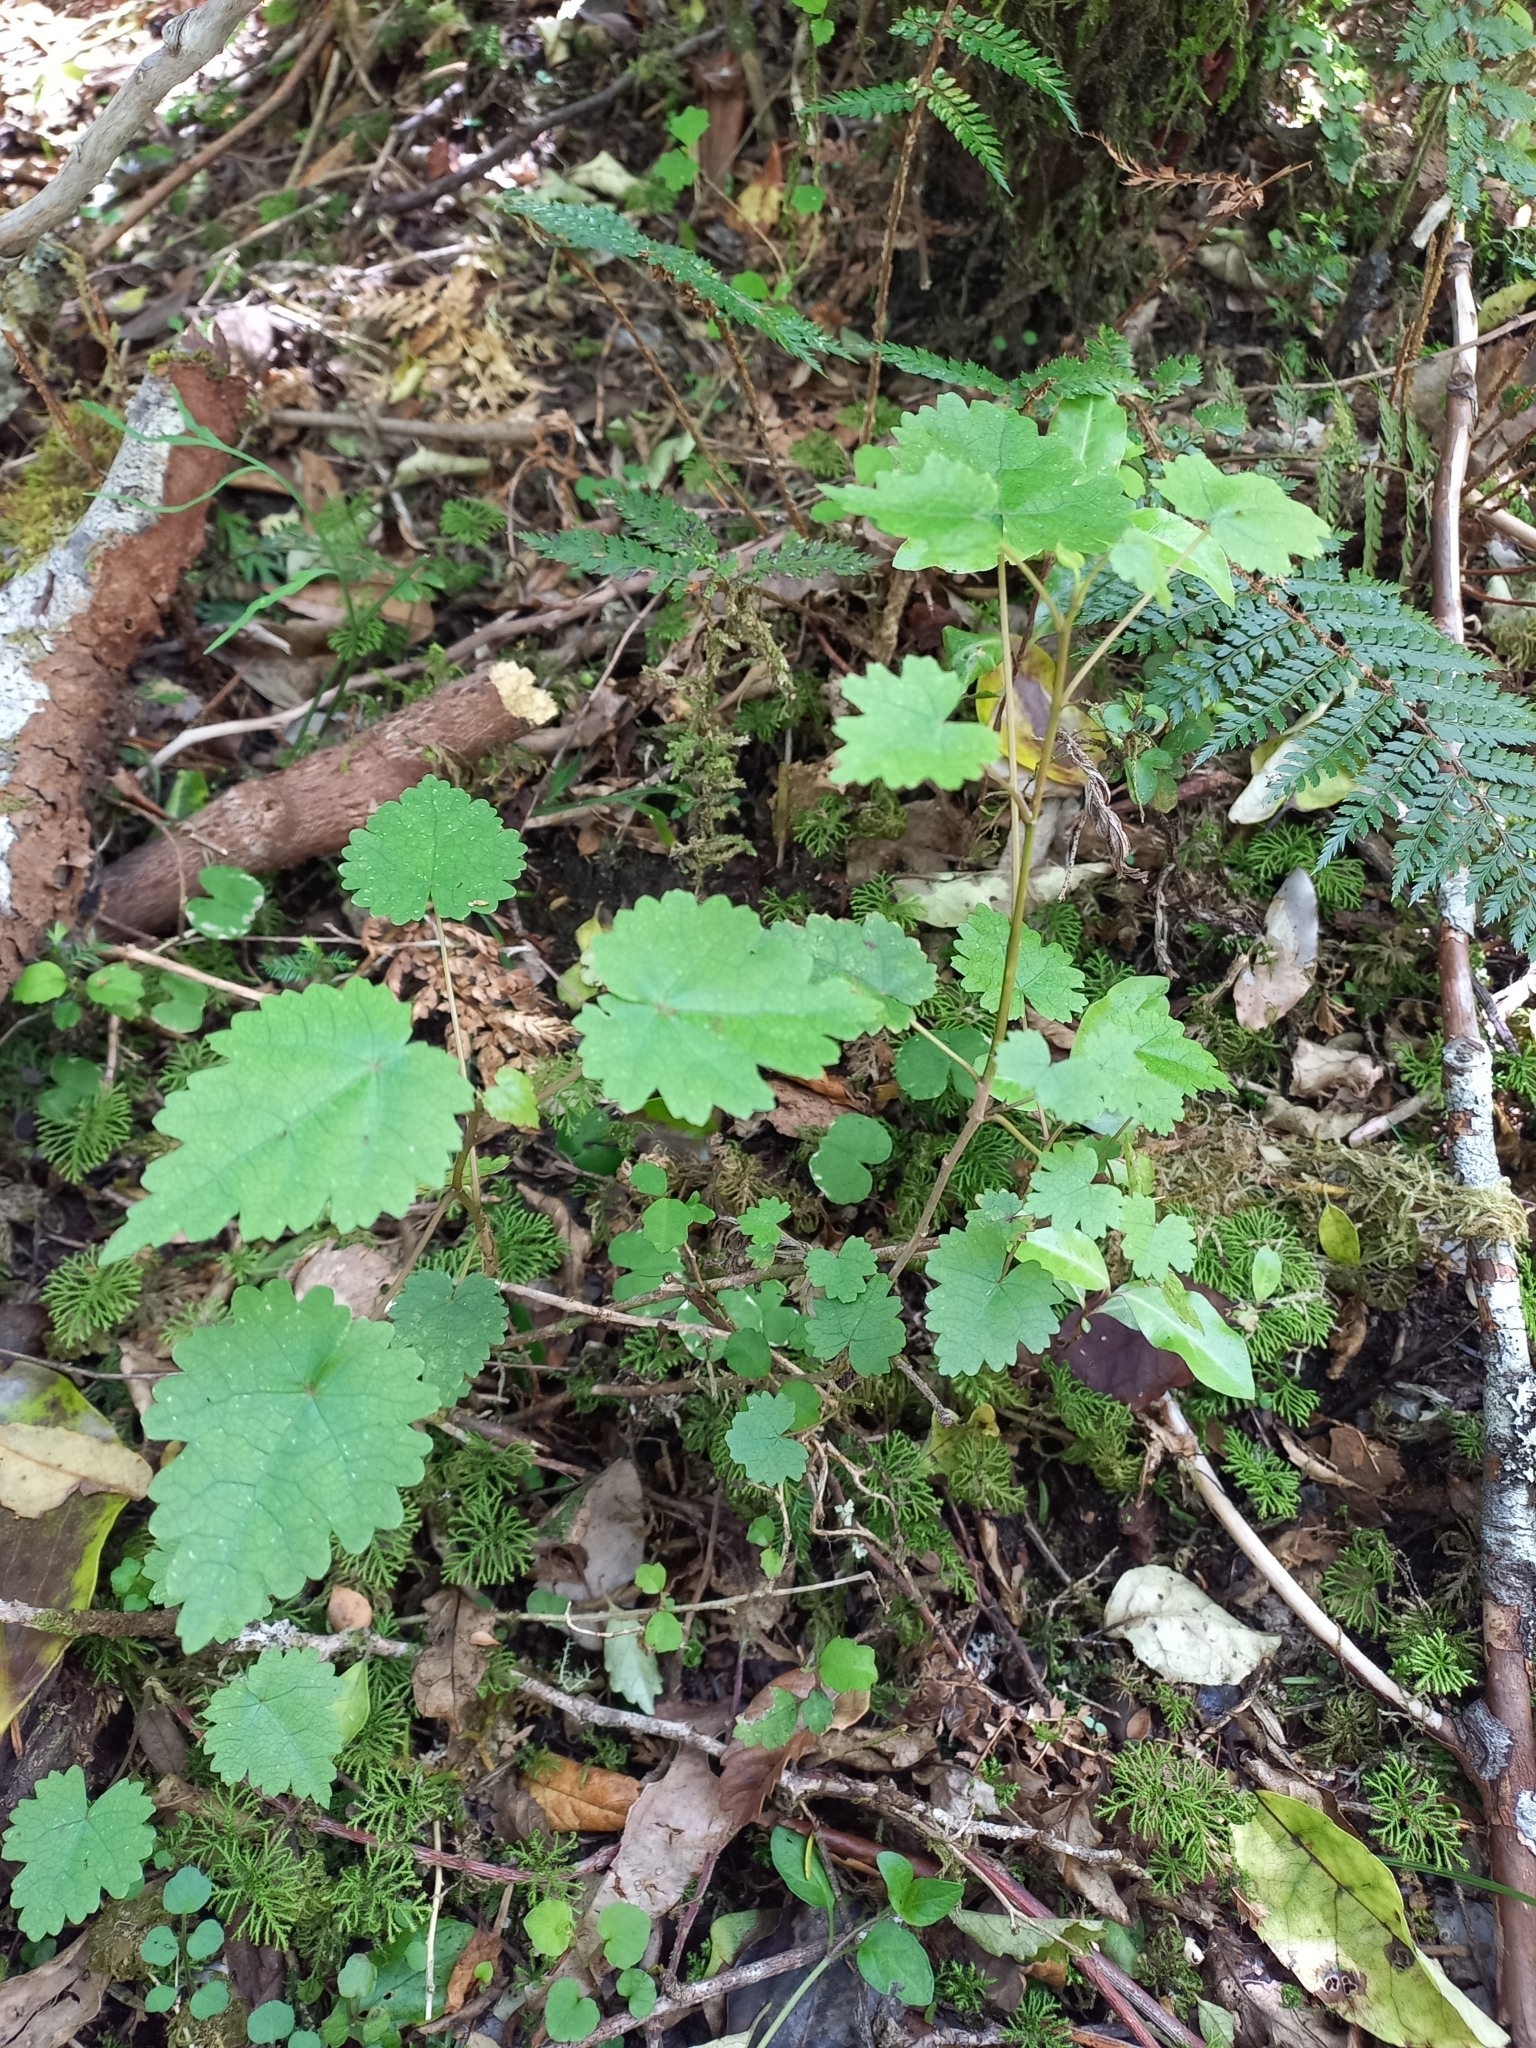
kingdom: Plantae
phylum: Tracheophyta
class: Magnoliopsida
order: Malvales
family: Malvaceae
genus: Hoheria
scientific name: Hoheria lyallii
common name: Lacebark
